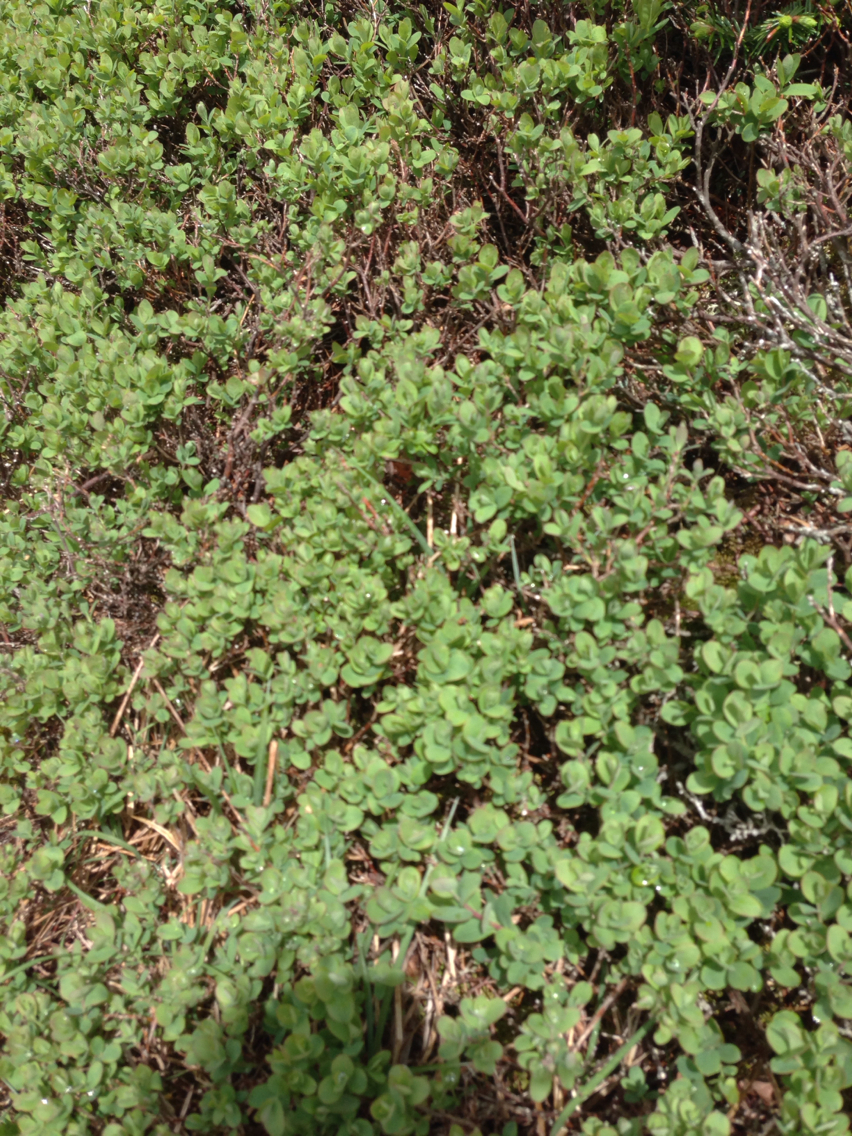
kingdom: Plantae
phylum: Tracheophyta
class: Magnoliopsida
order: Ericales
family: Ericaceae
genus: Vaccinium
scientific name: Vaccinium uliginosum
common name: Bog bilberry
